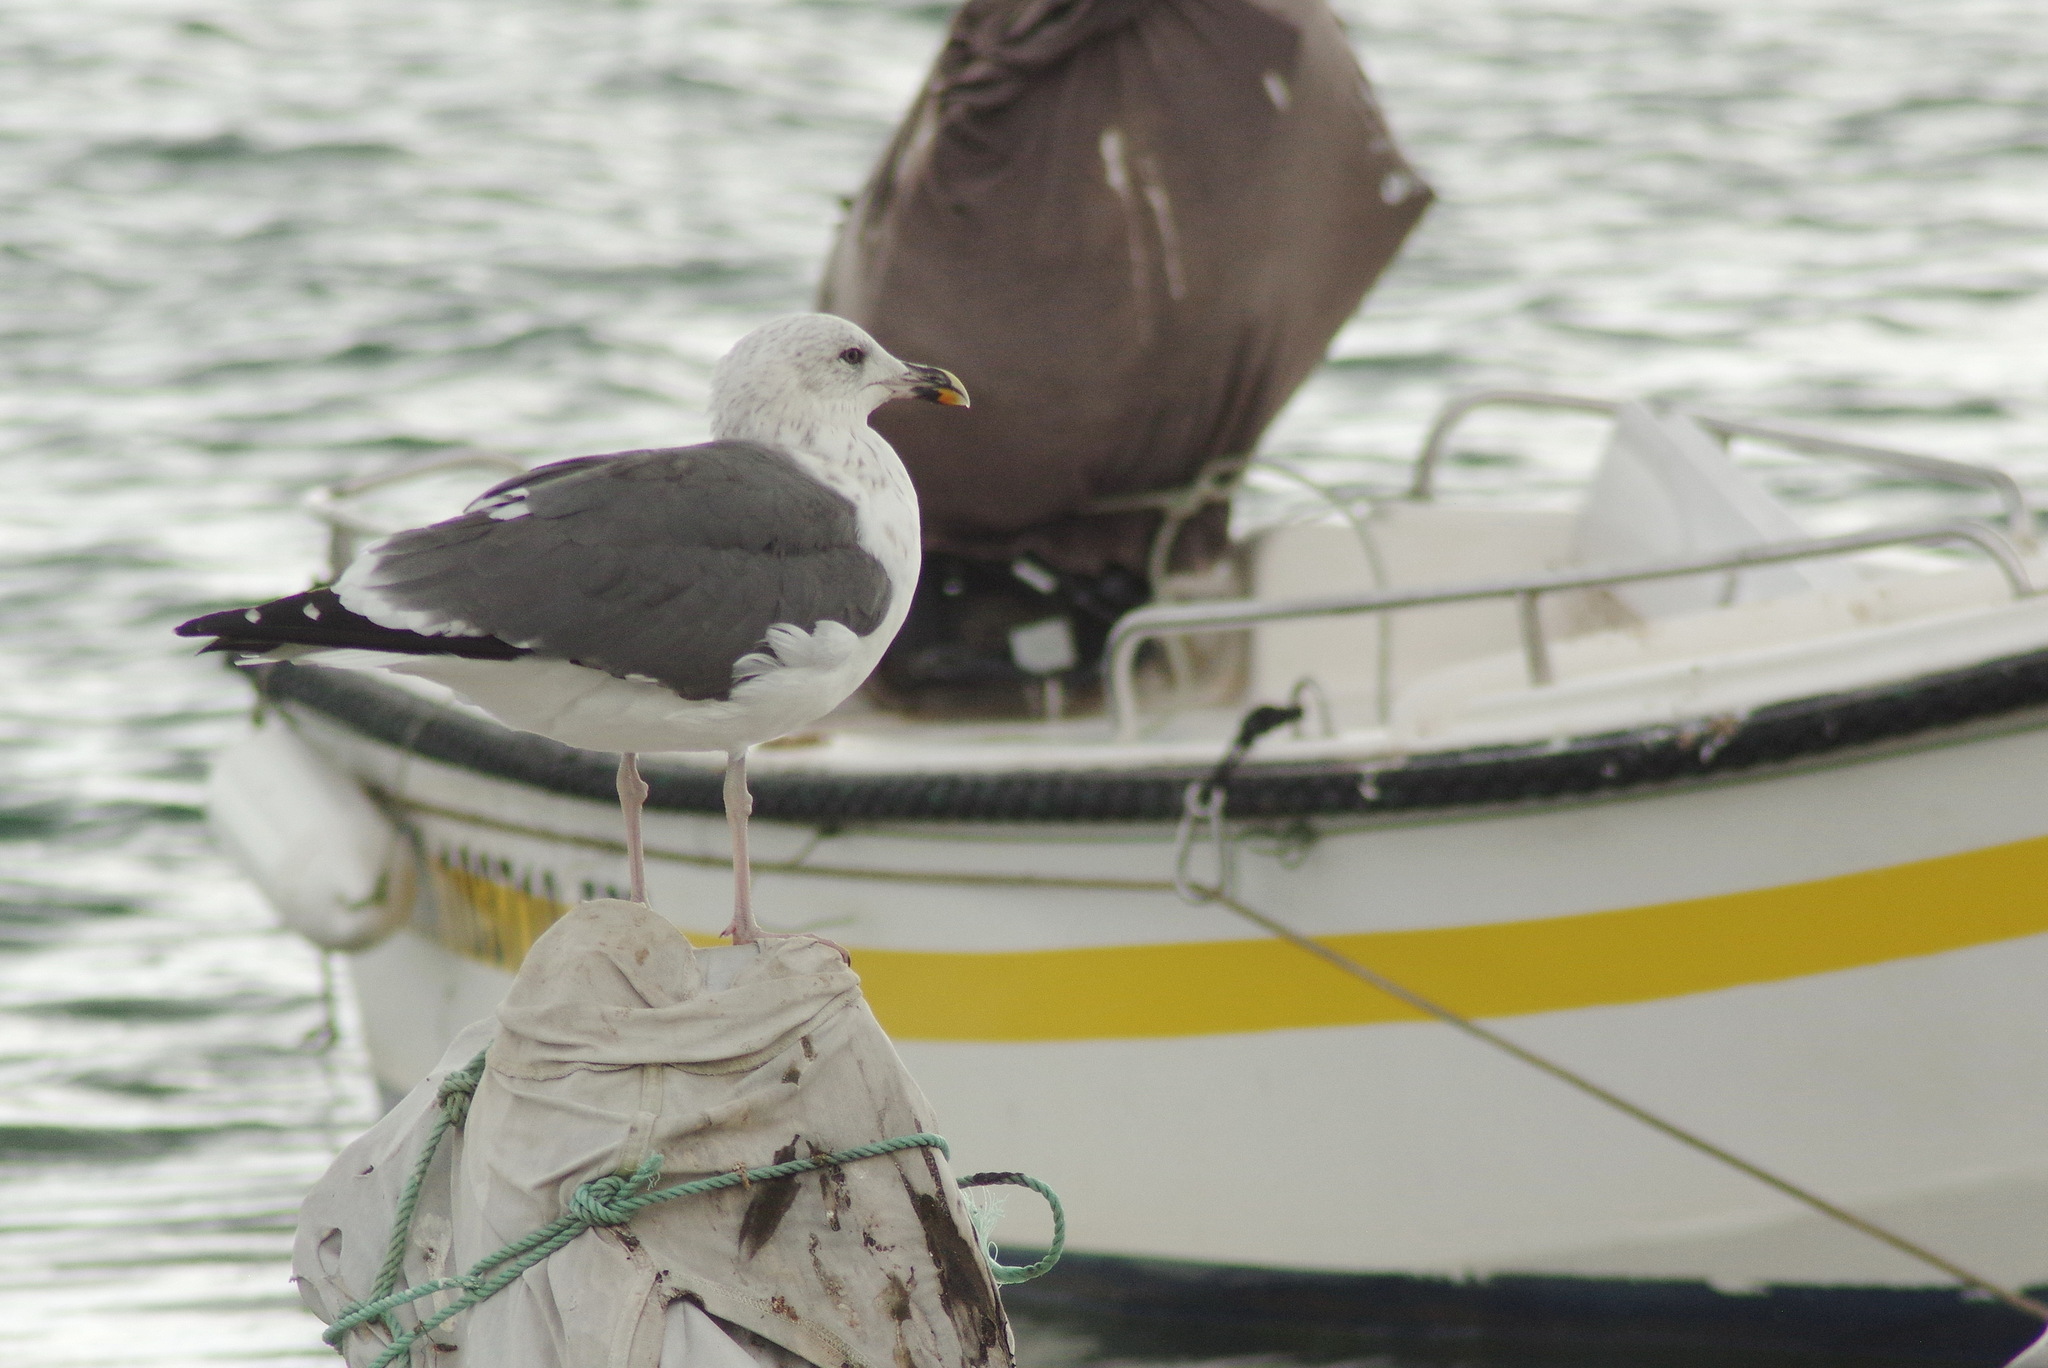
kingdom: Animalia
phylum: Chordata
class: Aves
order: Charadriiformes
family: Laridae
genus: Larus
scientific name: Larus fuscus
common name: Lesser black-backed gull
